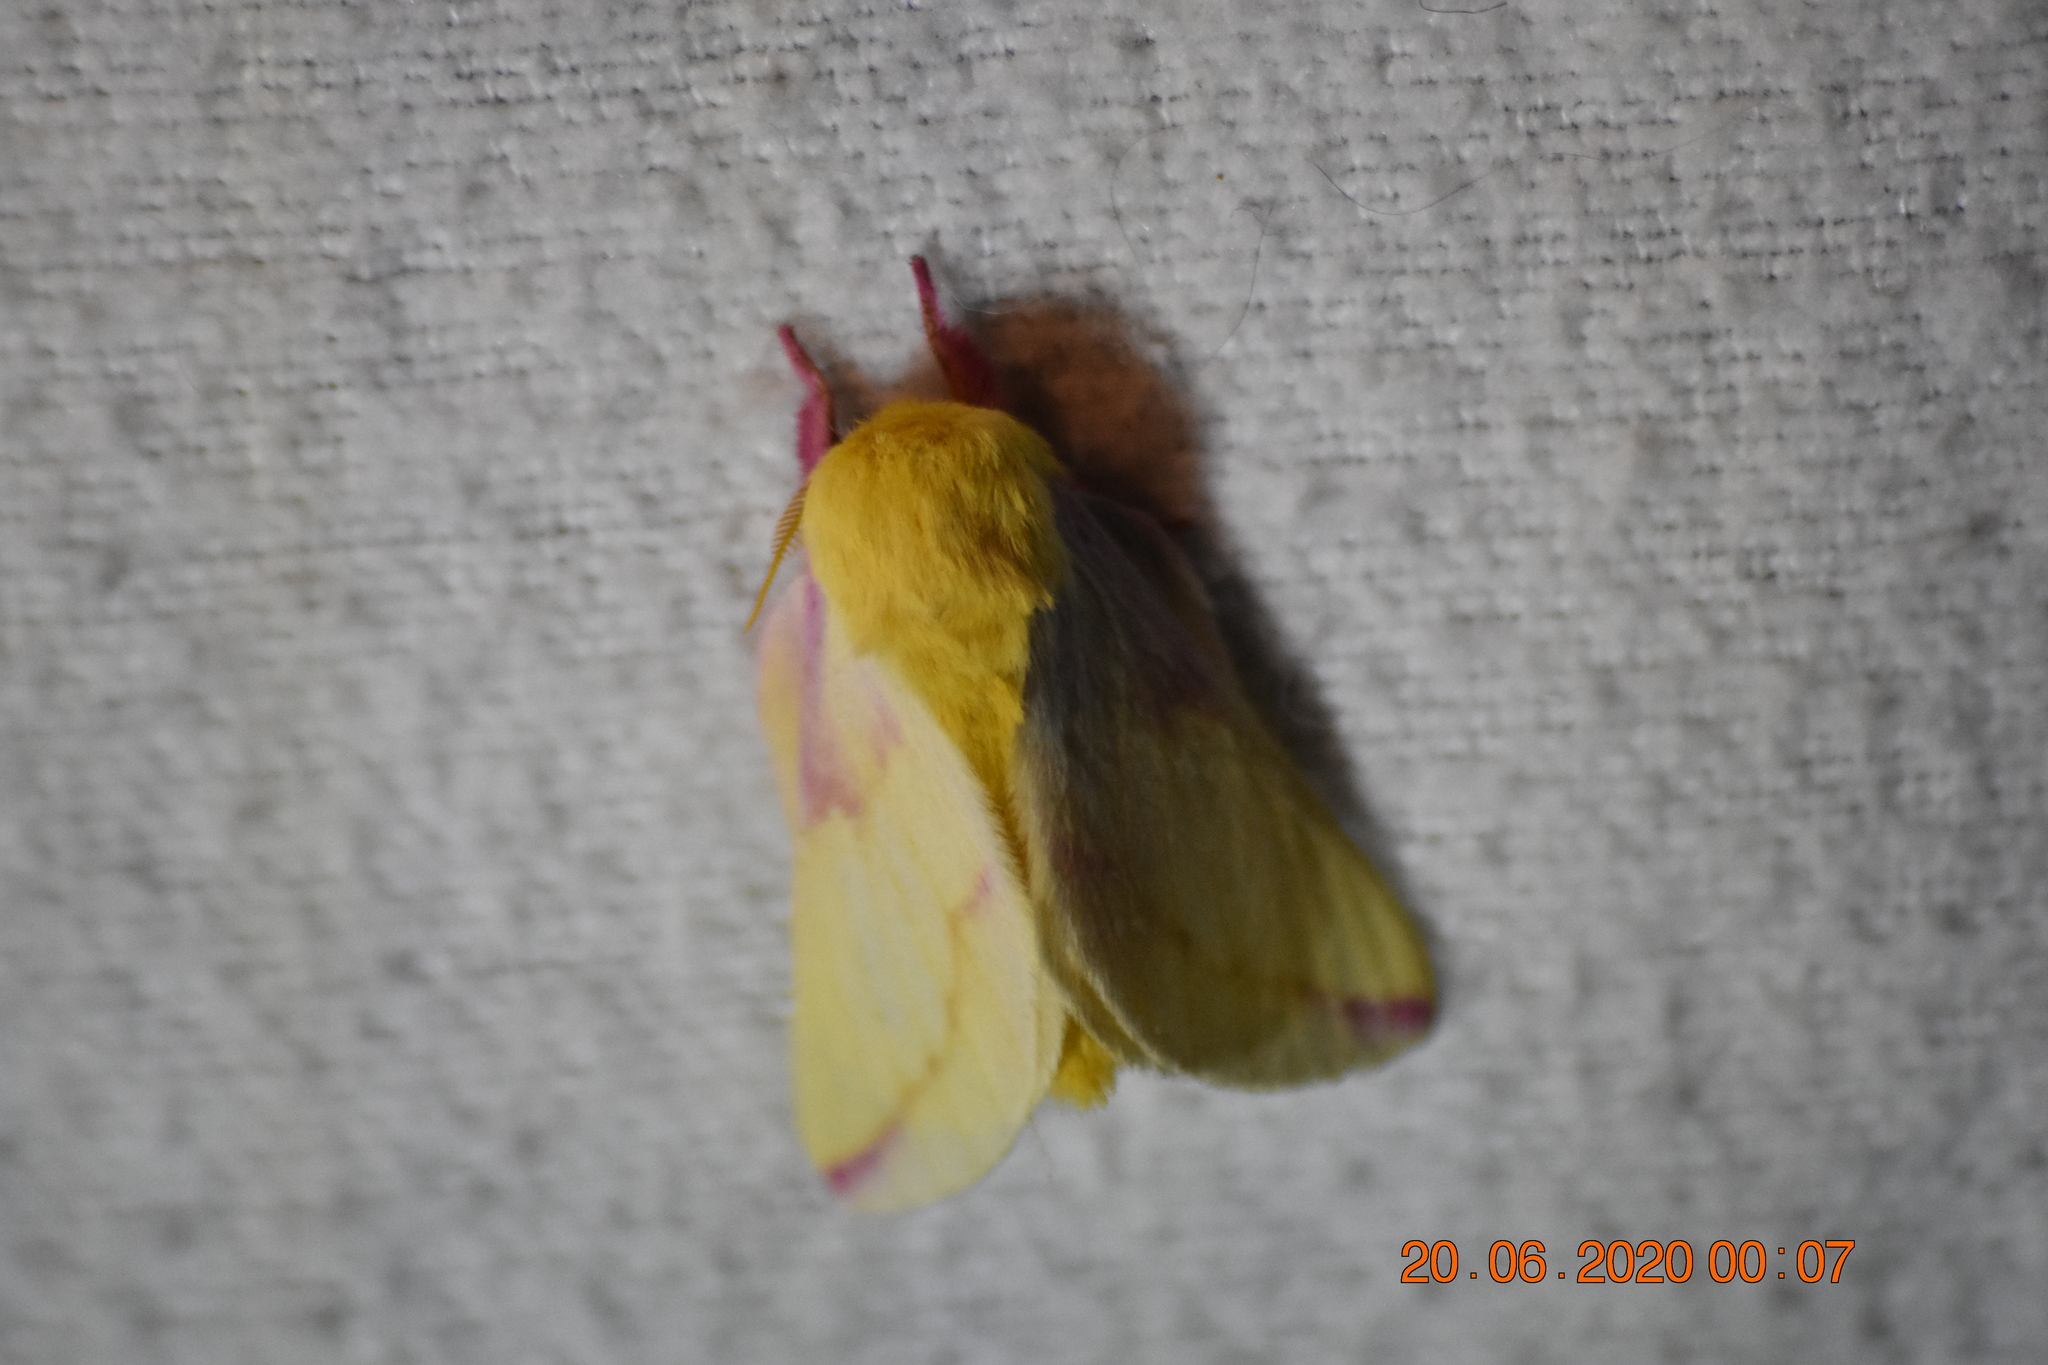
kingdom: Animalia
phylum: Arthropoda
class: Insecta
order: Lepidoptera
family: Saturniidae
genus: Dryocampa
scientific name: Dryocampa rubicunda
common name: Rosy maple moth
